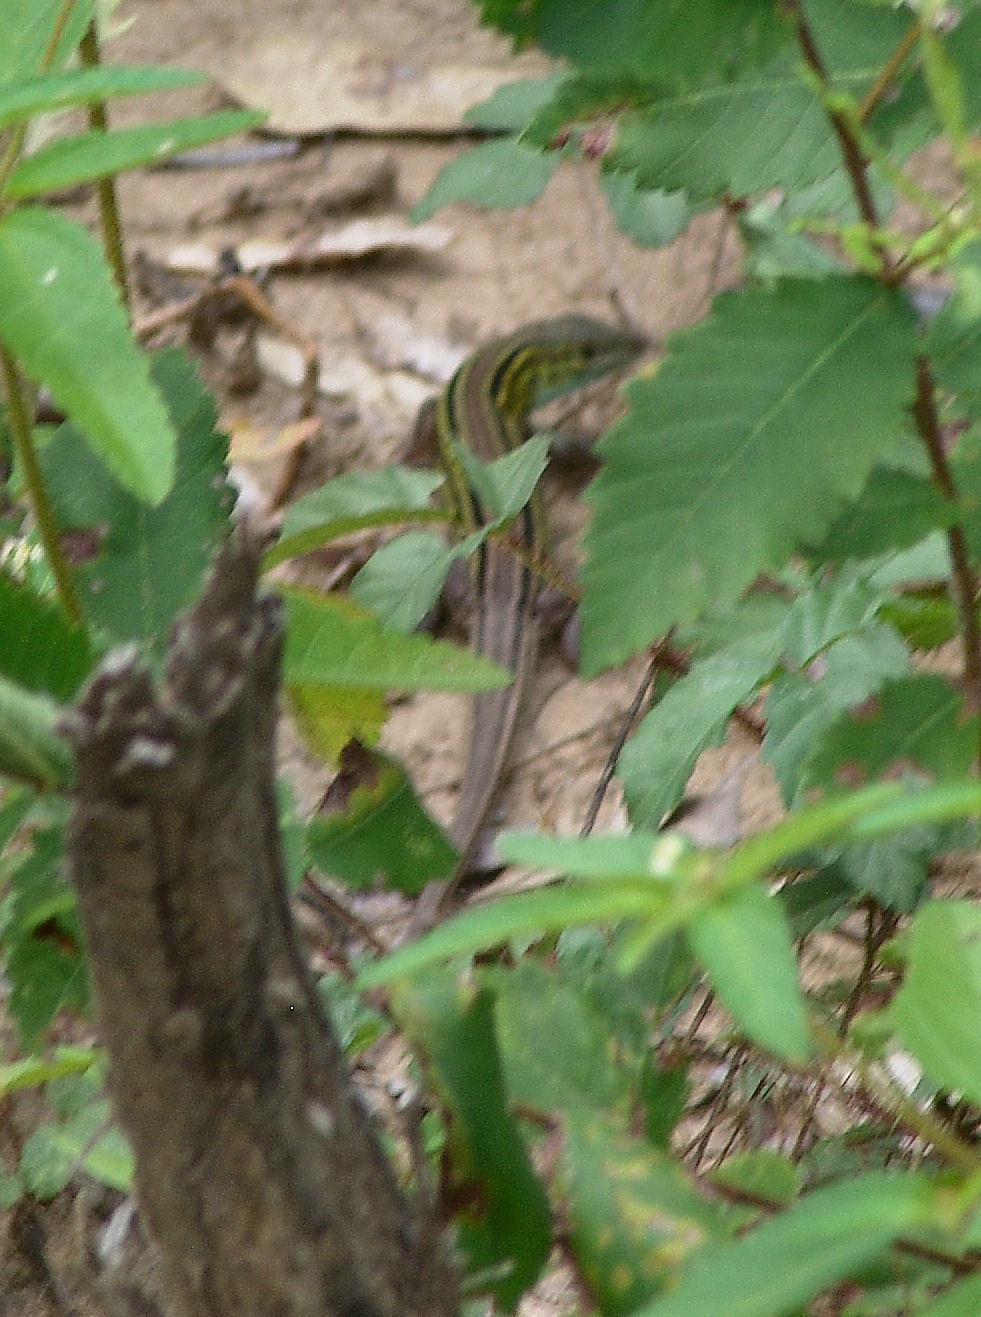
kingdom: Animalia
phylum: Chordata
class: Squamata
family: Teiidae
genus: Aspidoscelis
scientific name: Aspidoscelis sexlineatus
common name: Six-lined racerunner
